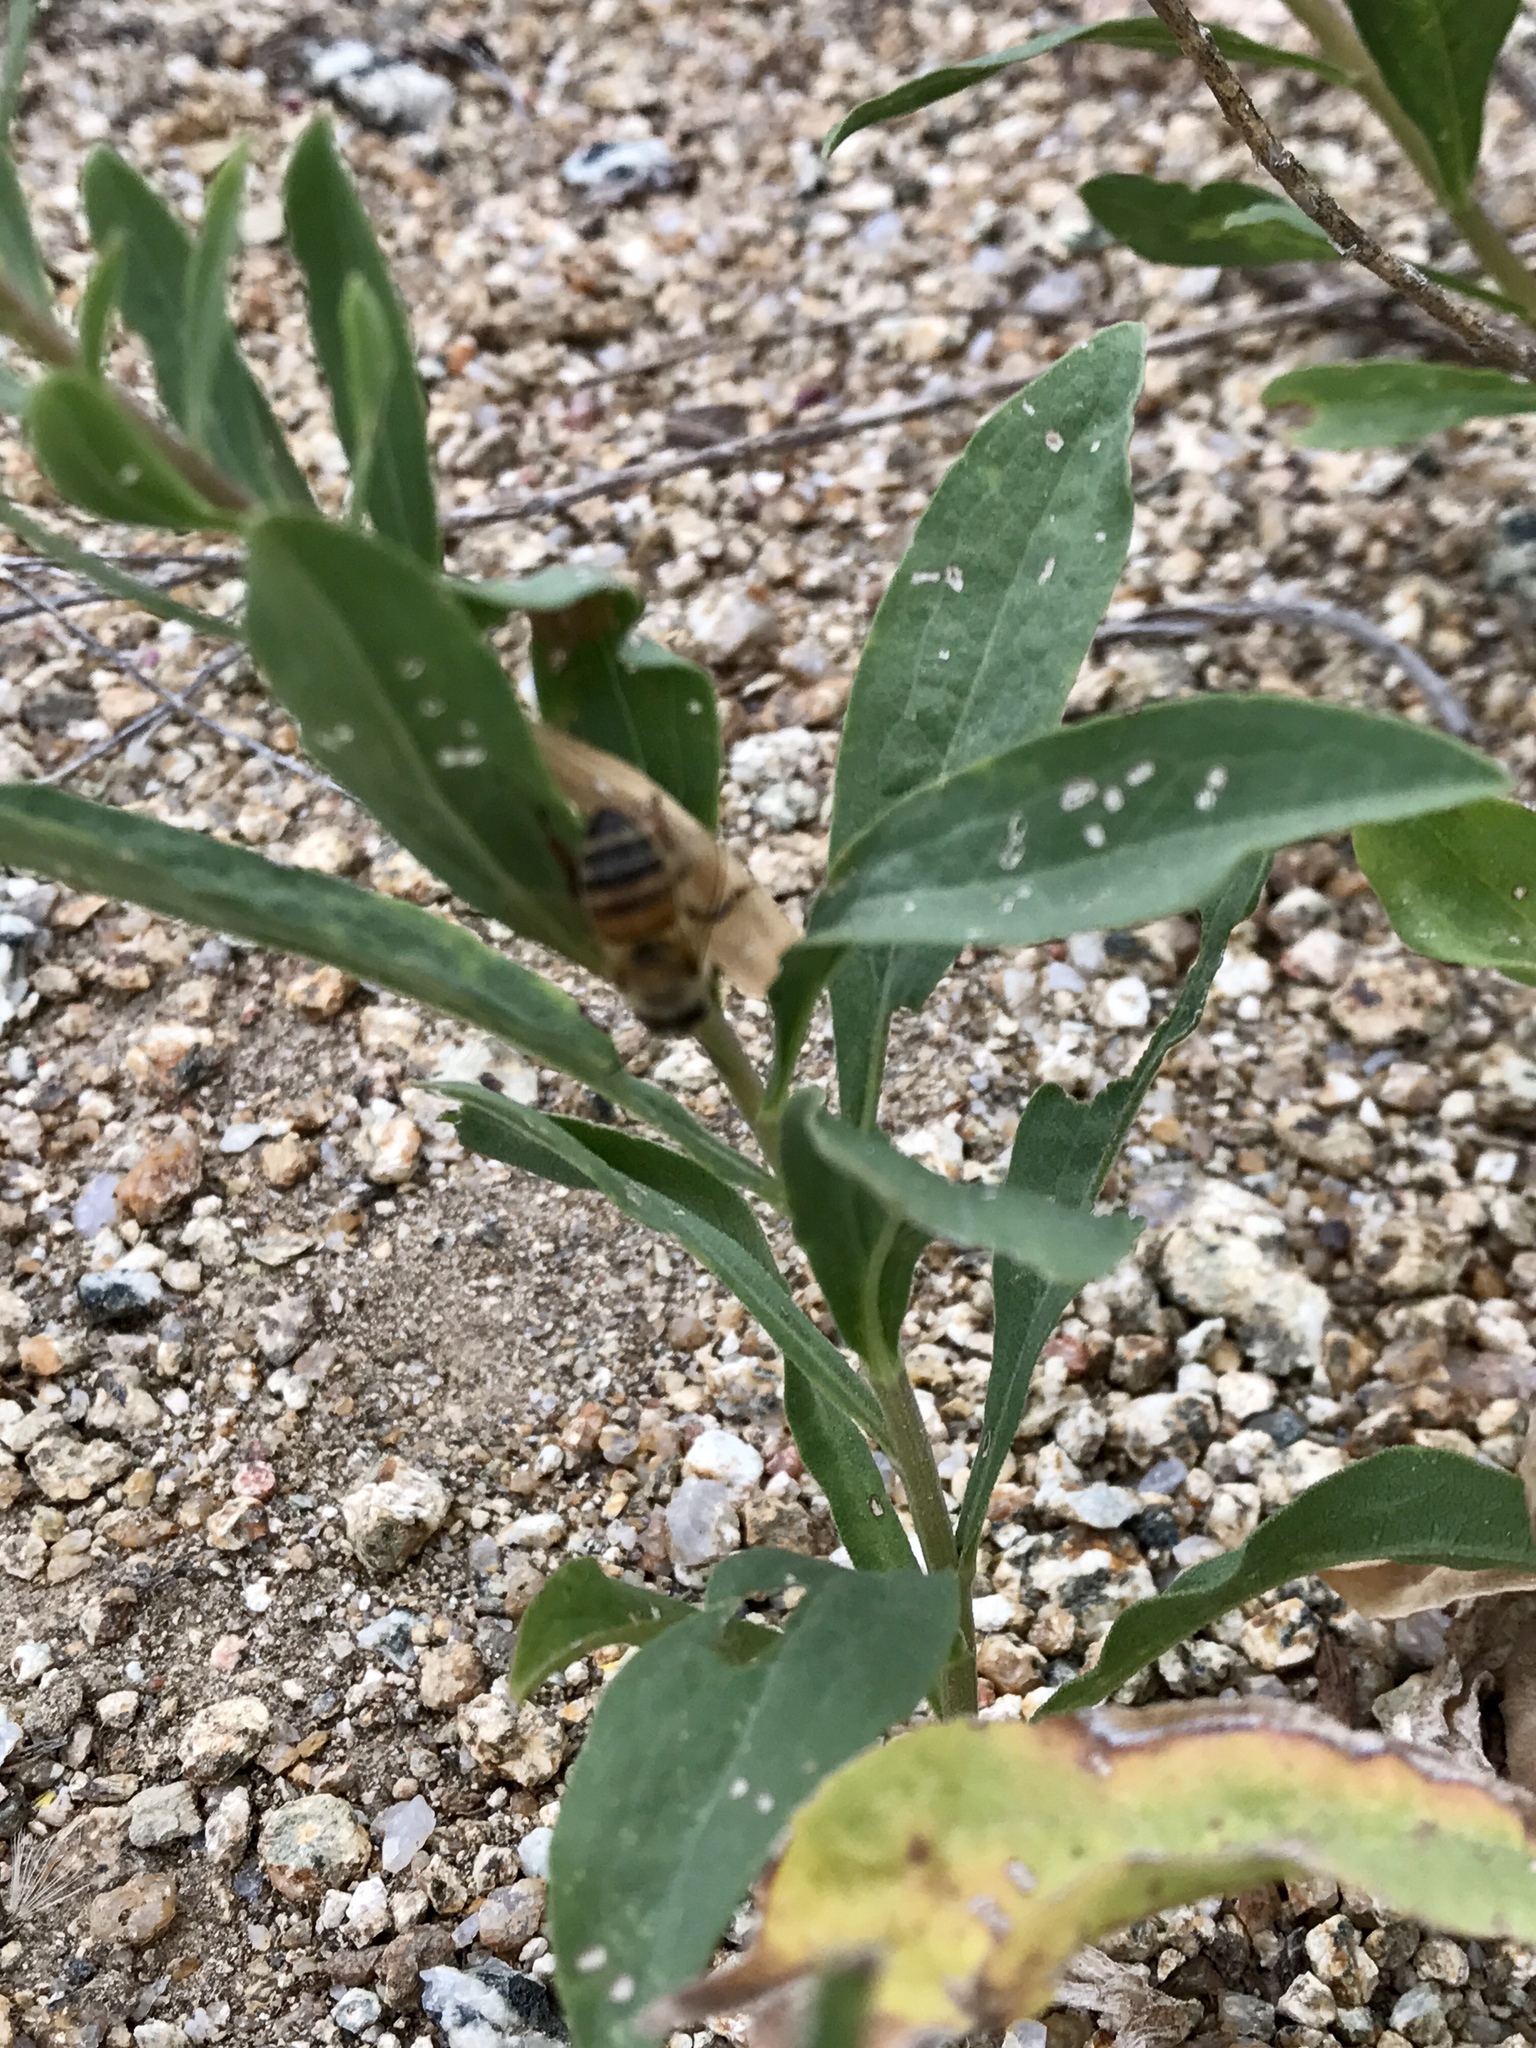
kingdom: Animalia
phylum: Arthropoda
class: Insecta
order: Hymenoptera
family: Apidae
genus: Apis
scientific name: Apis mellifera
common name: Honey bee
